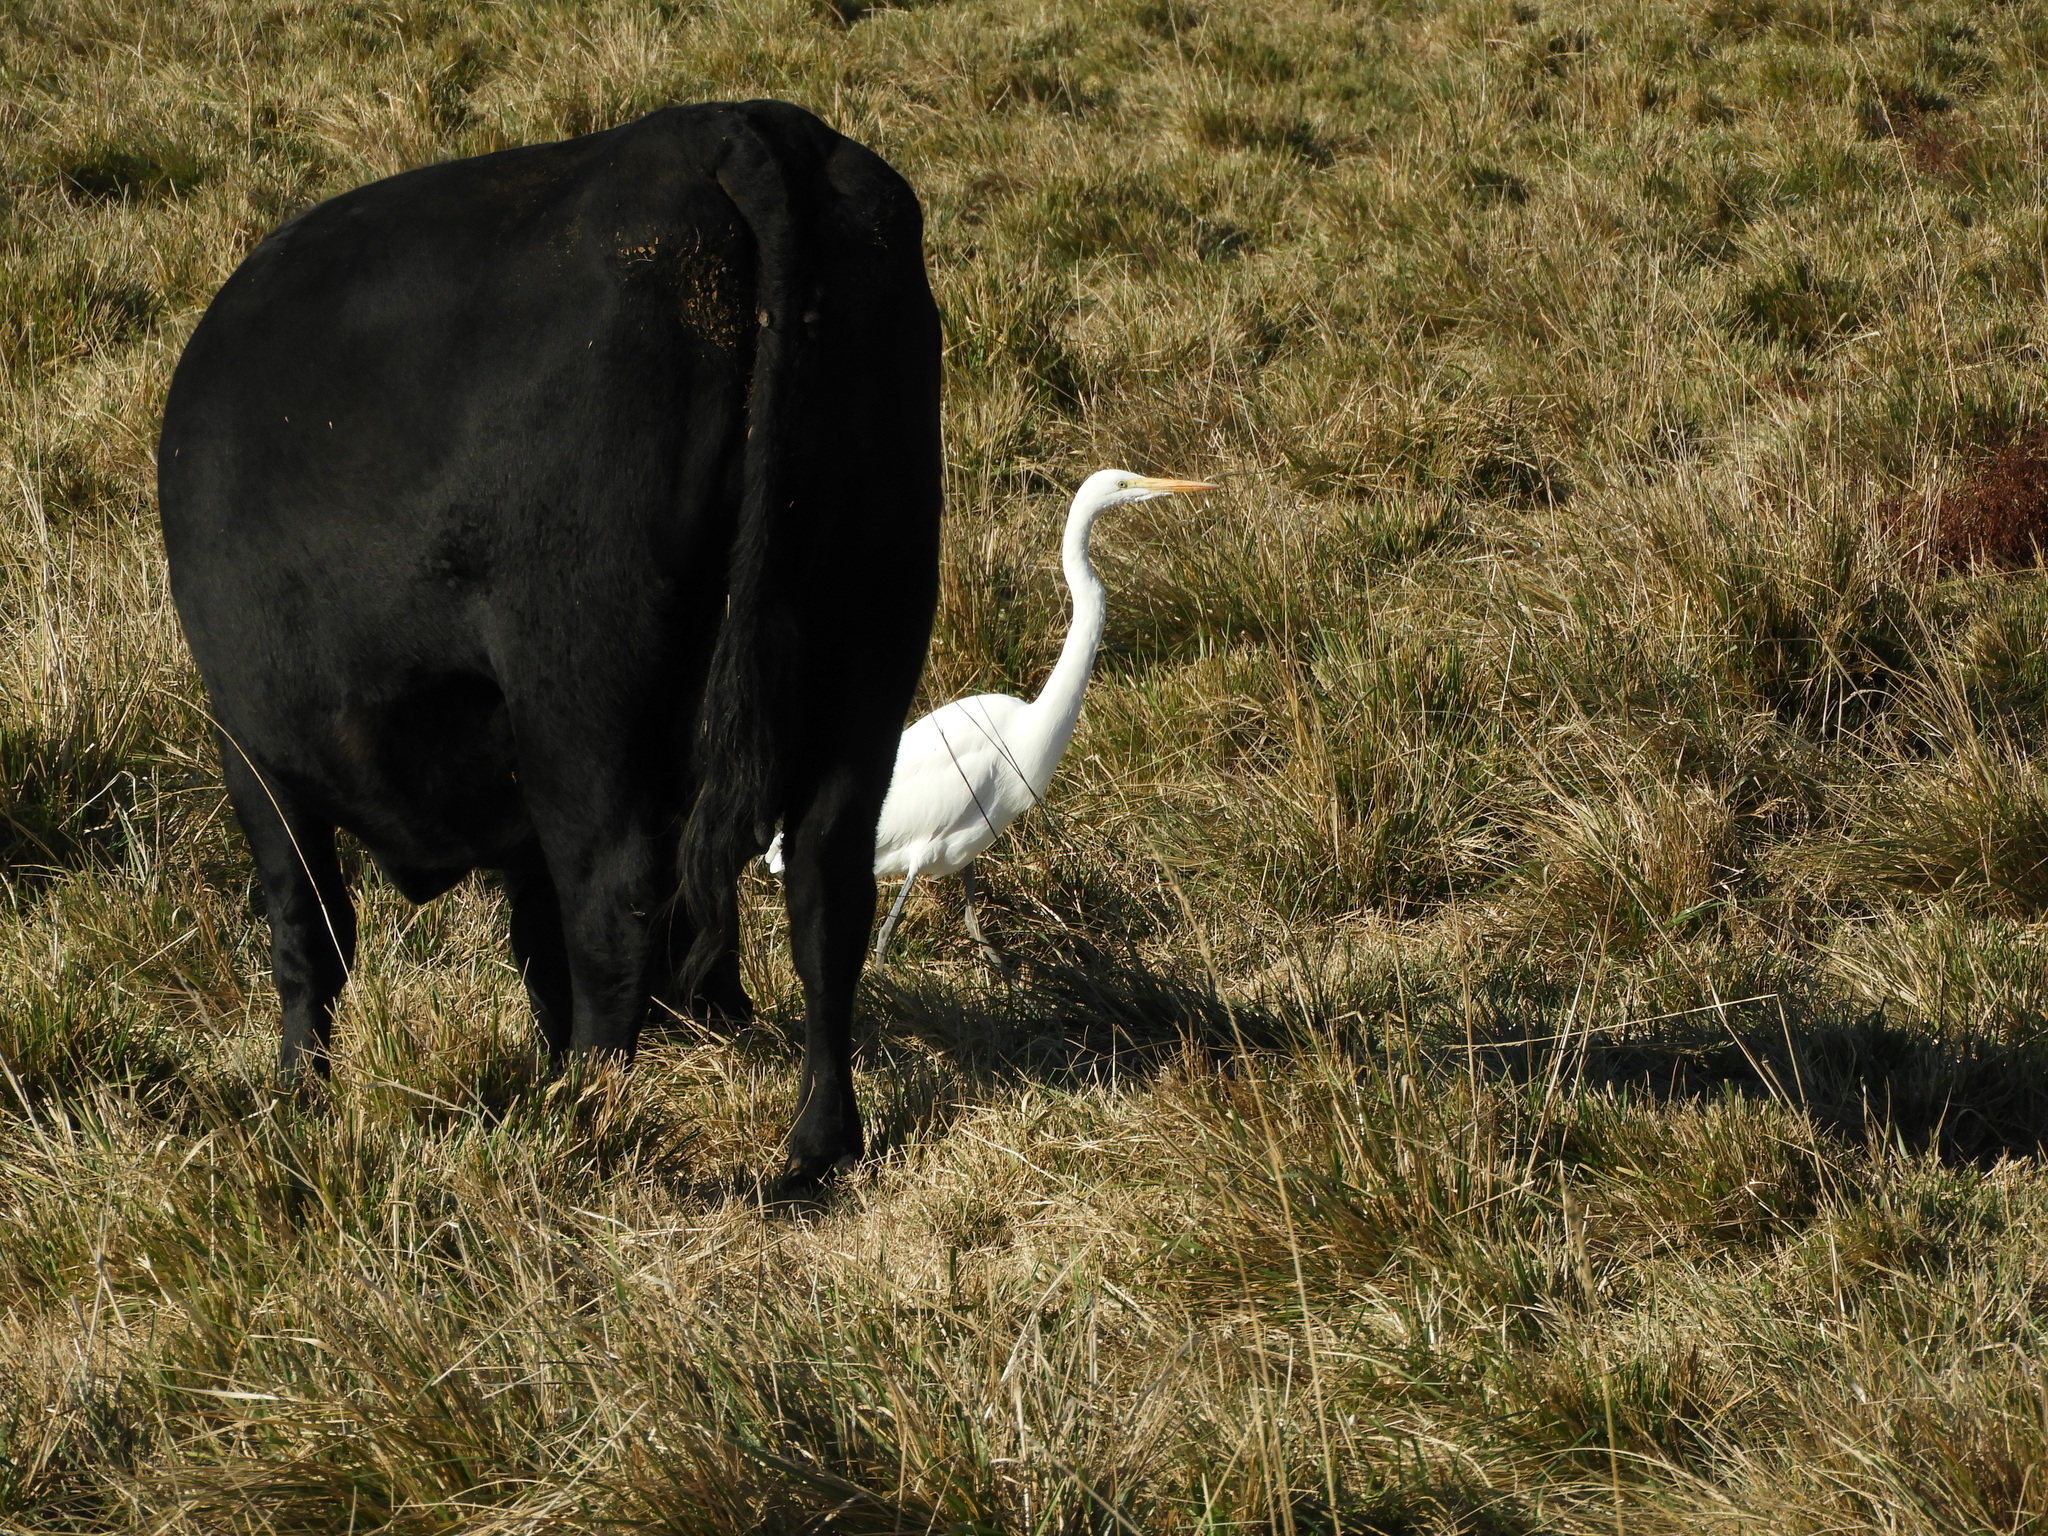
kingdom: Animalia
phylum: Chordata
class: Aves
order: Pelecaniformes
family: Ardeidae
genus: Ardea
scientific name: Ardea alba
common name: Great egret
